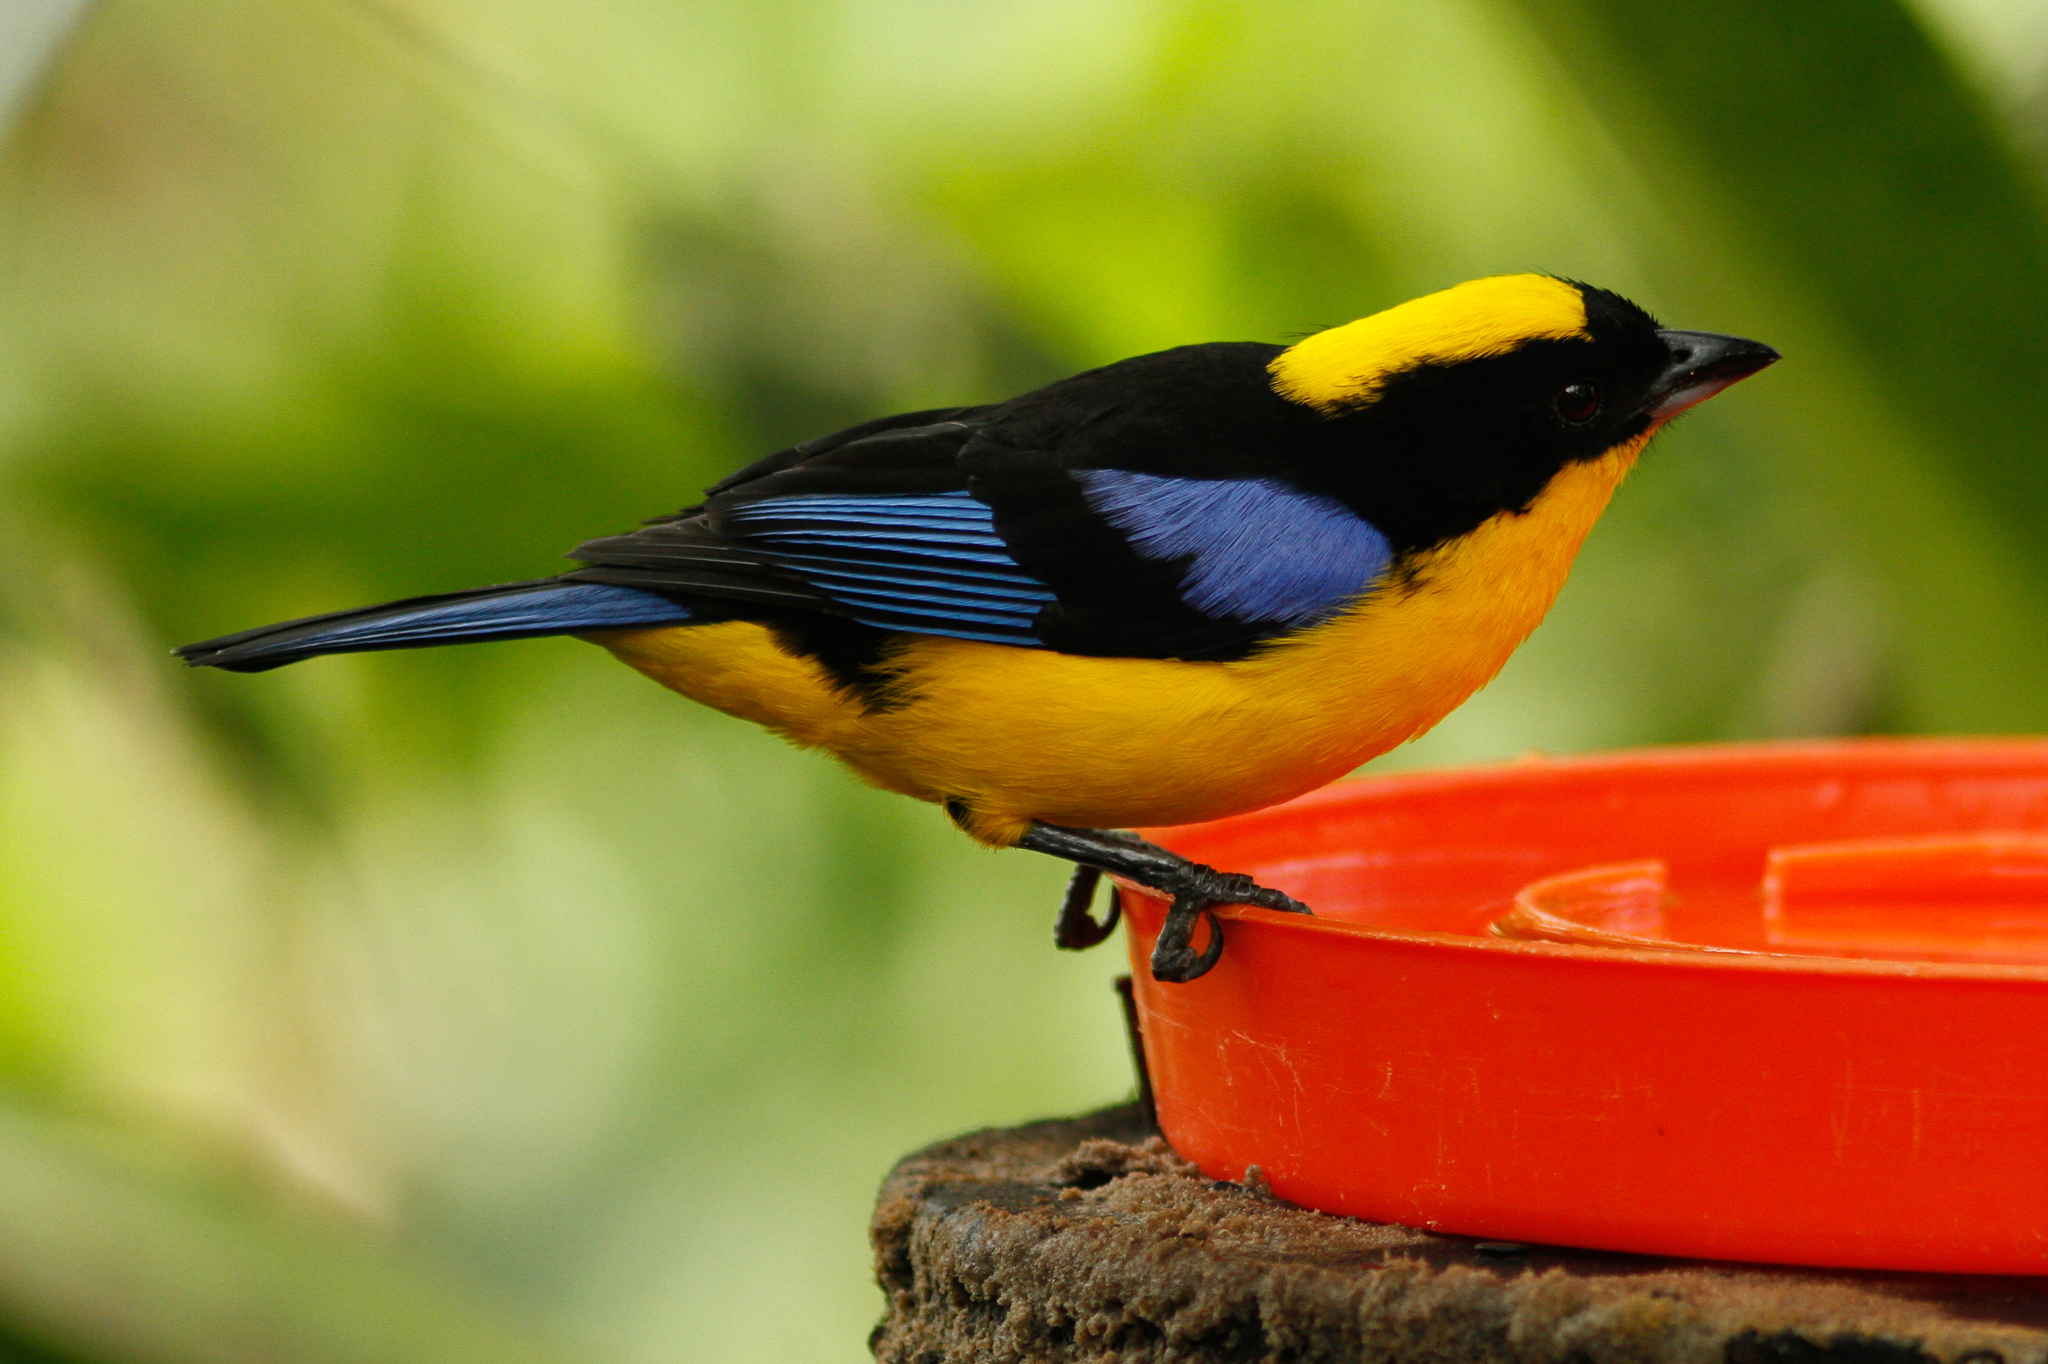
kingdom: Animalia
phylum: Chordata
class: Aves
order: Passeriformes
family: Thraupidae
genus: Anisognathus
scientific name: Anisognathus somptuosus
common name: Blue-winged mountain-tanager
